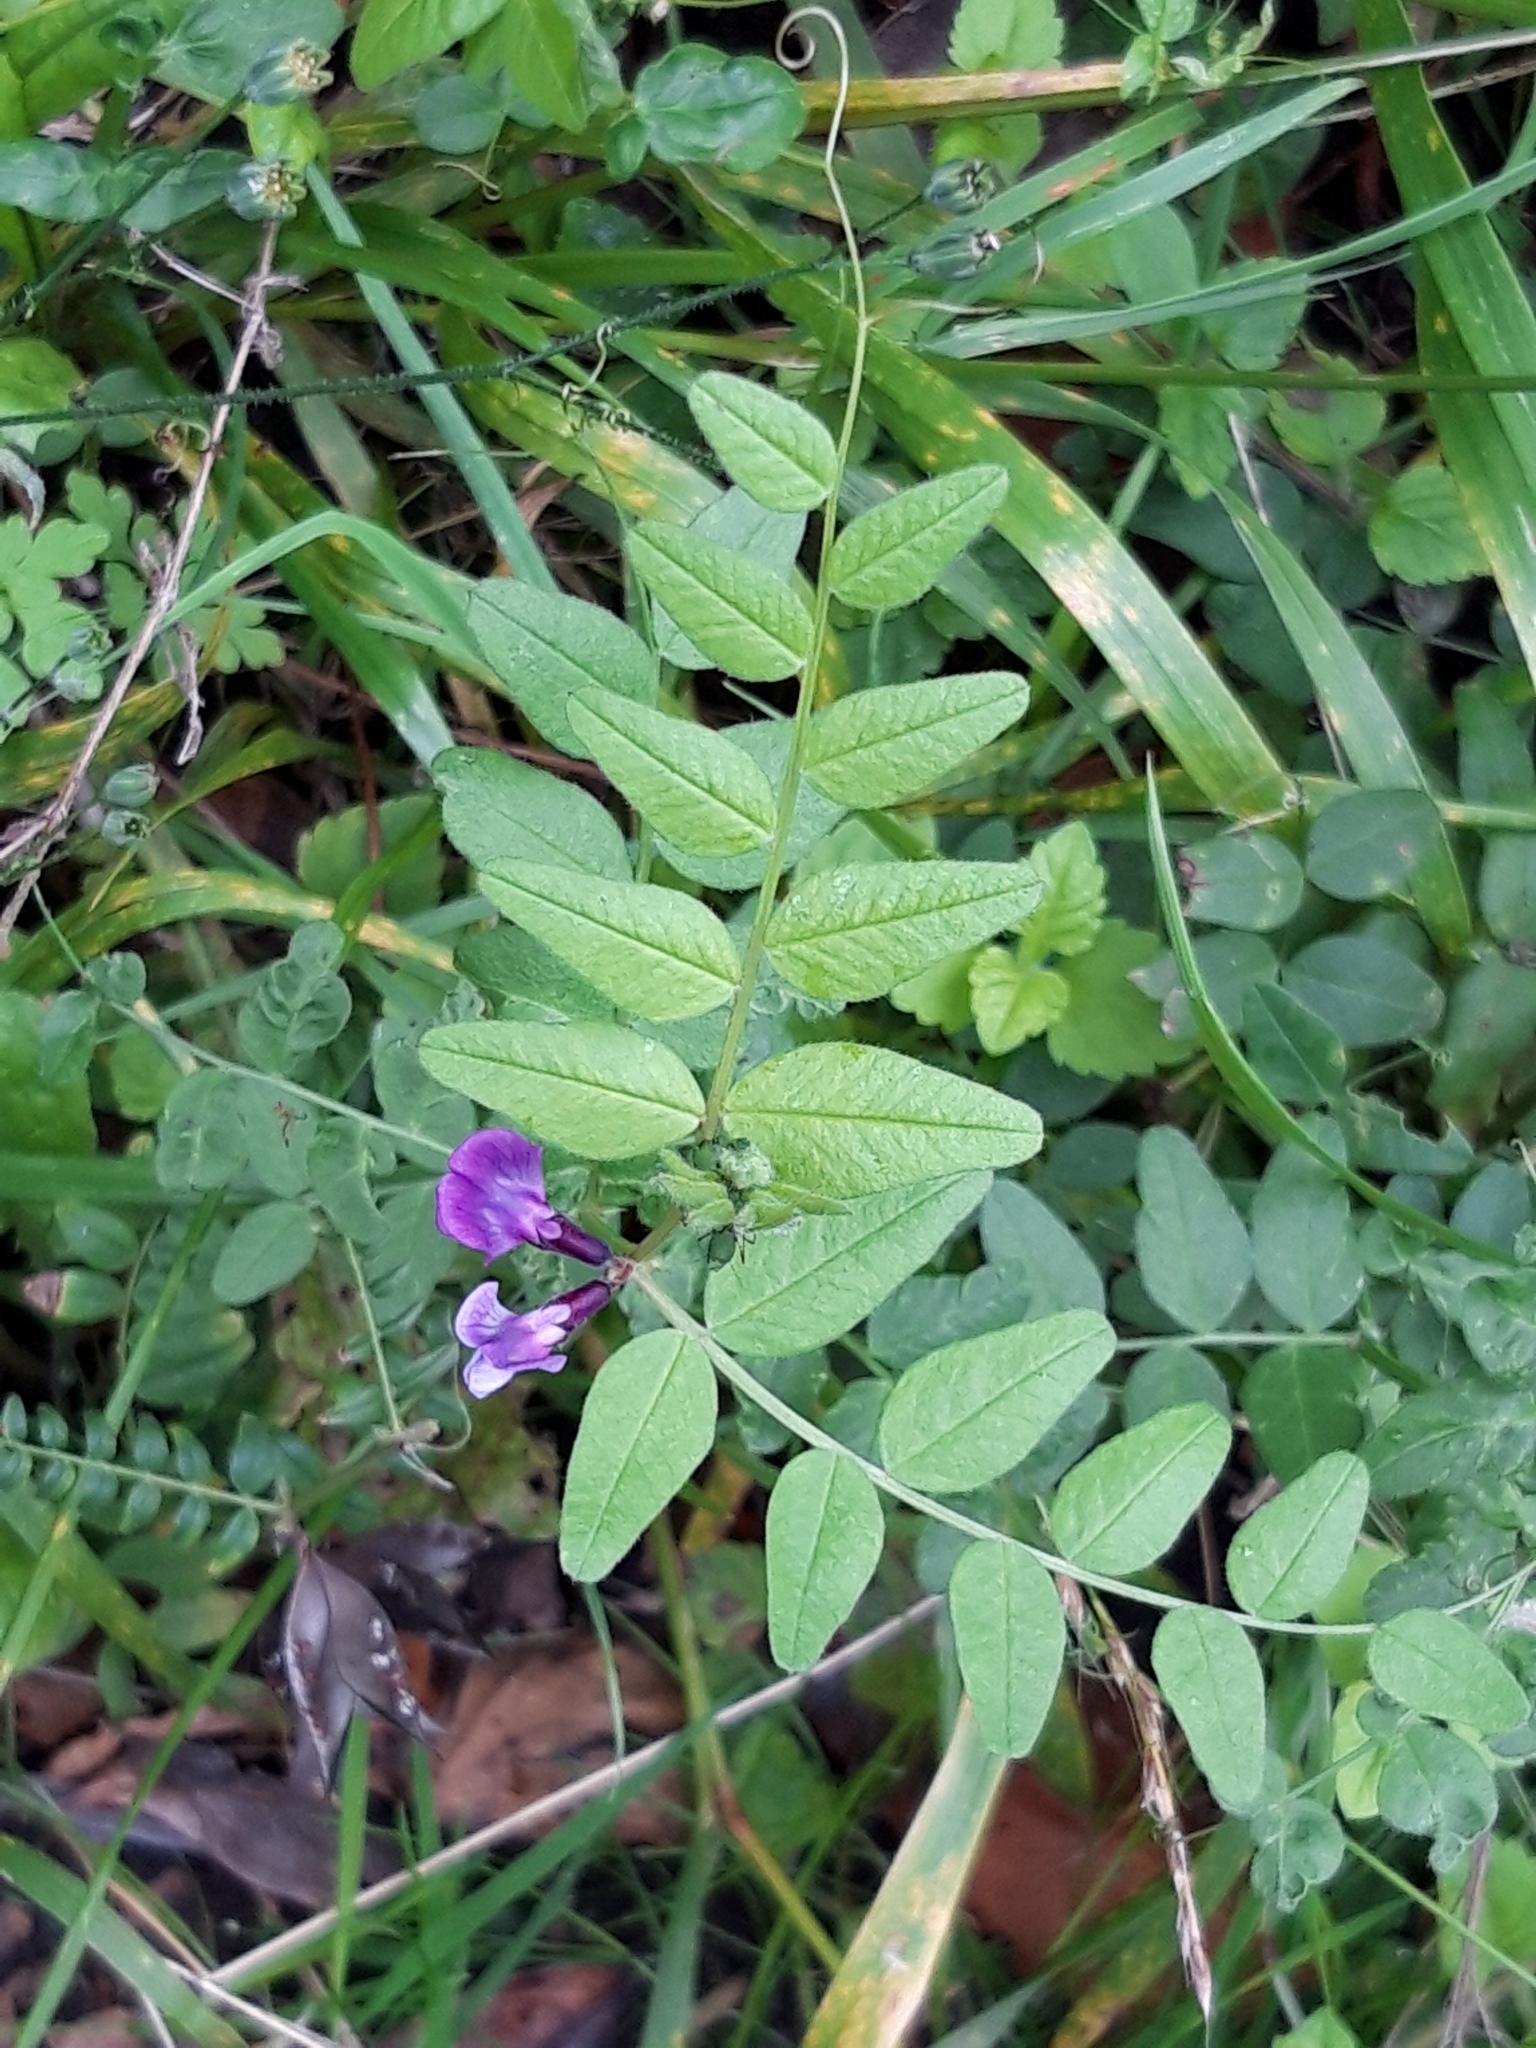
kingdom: Plantae
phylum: Tracheophyta
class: Magnoliopsida
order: Fabales
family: Fabaceae
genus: Vicia
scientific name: Vicia sepium
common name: Bush vetch
